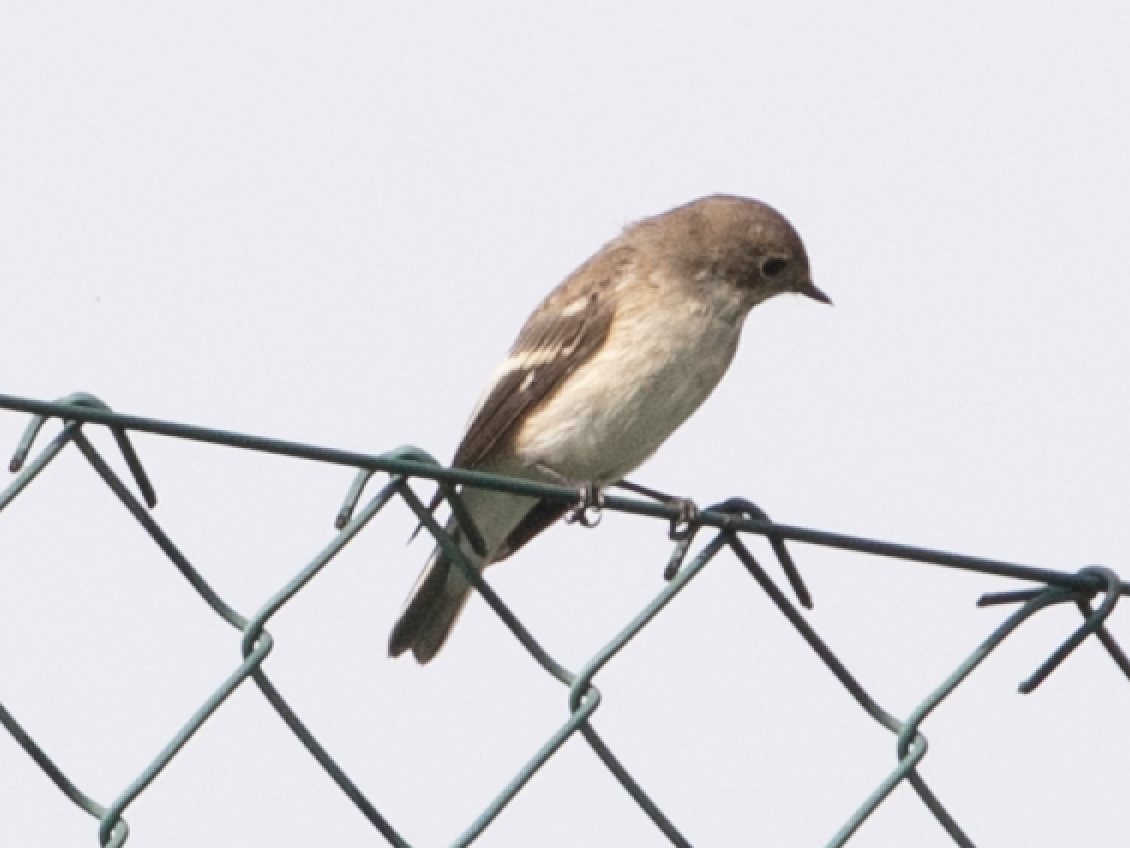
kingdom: Animalia
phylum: Chordata
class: Aves
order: Passeriformes
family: Muscicapidae
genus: Ficedula
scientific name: Ficedula hypoleuca
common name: European pied flycatcher
